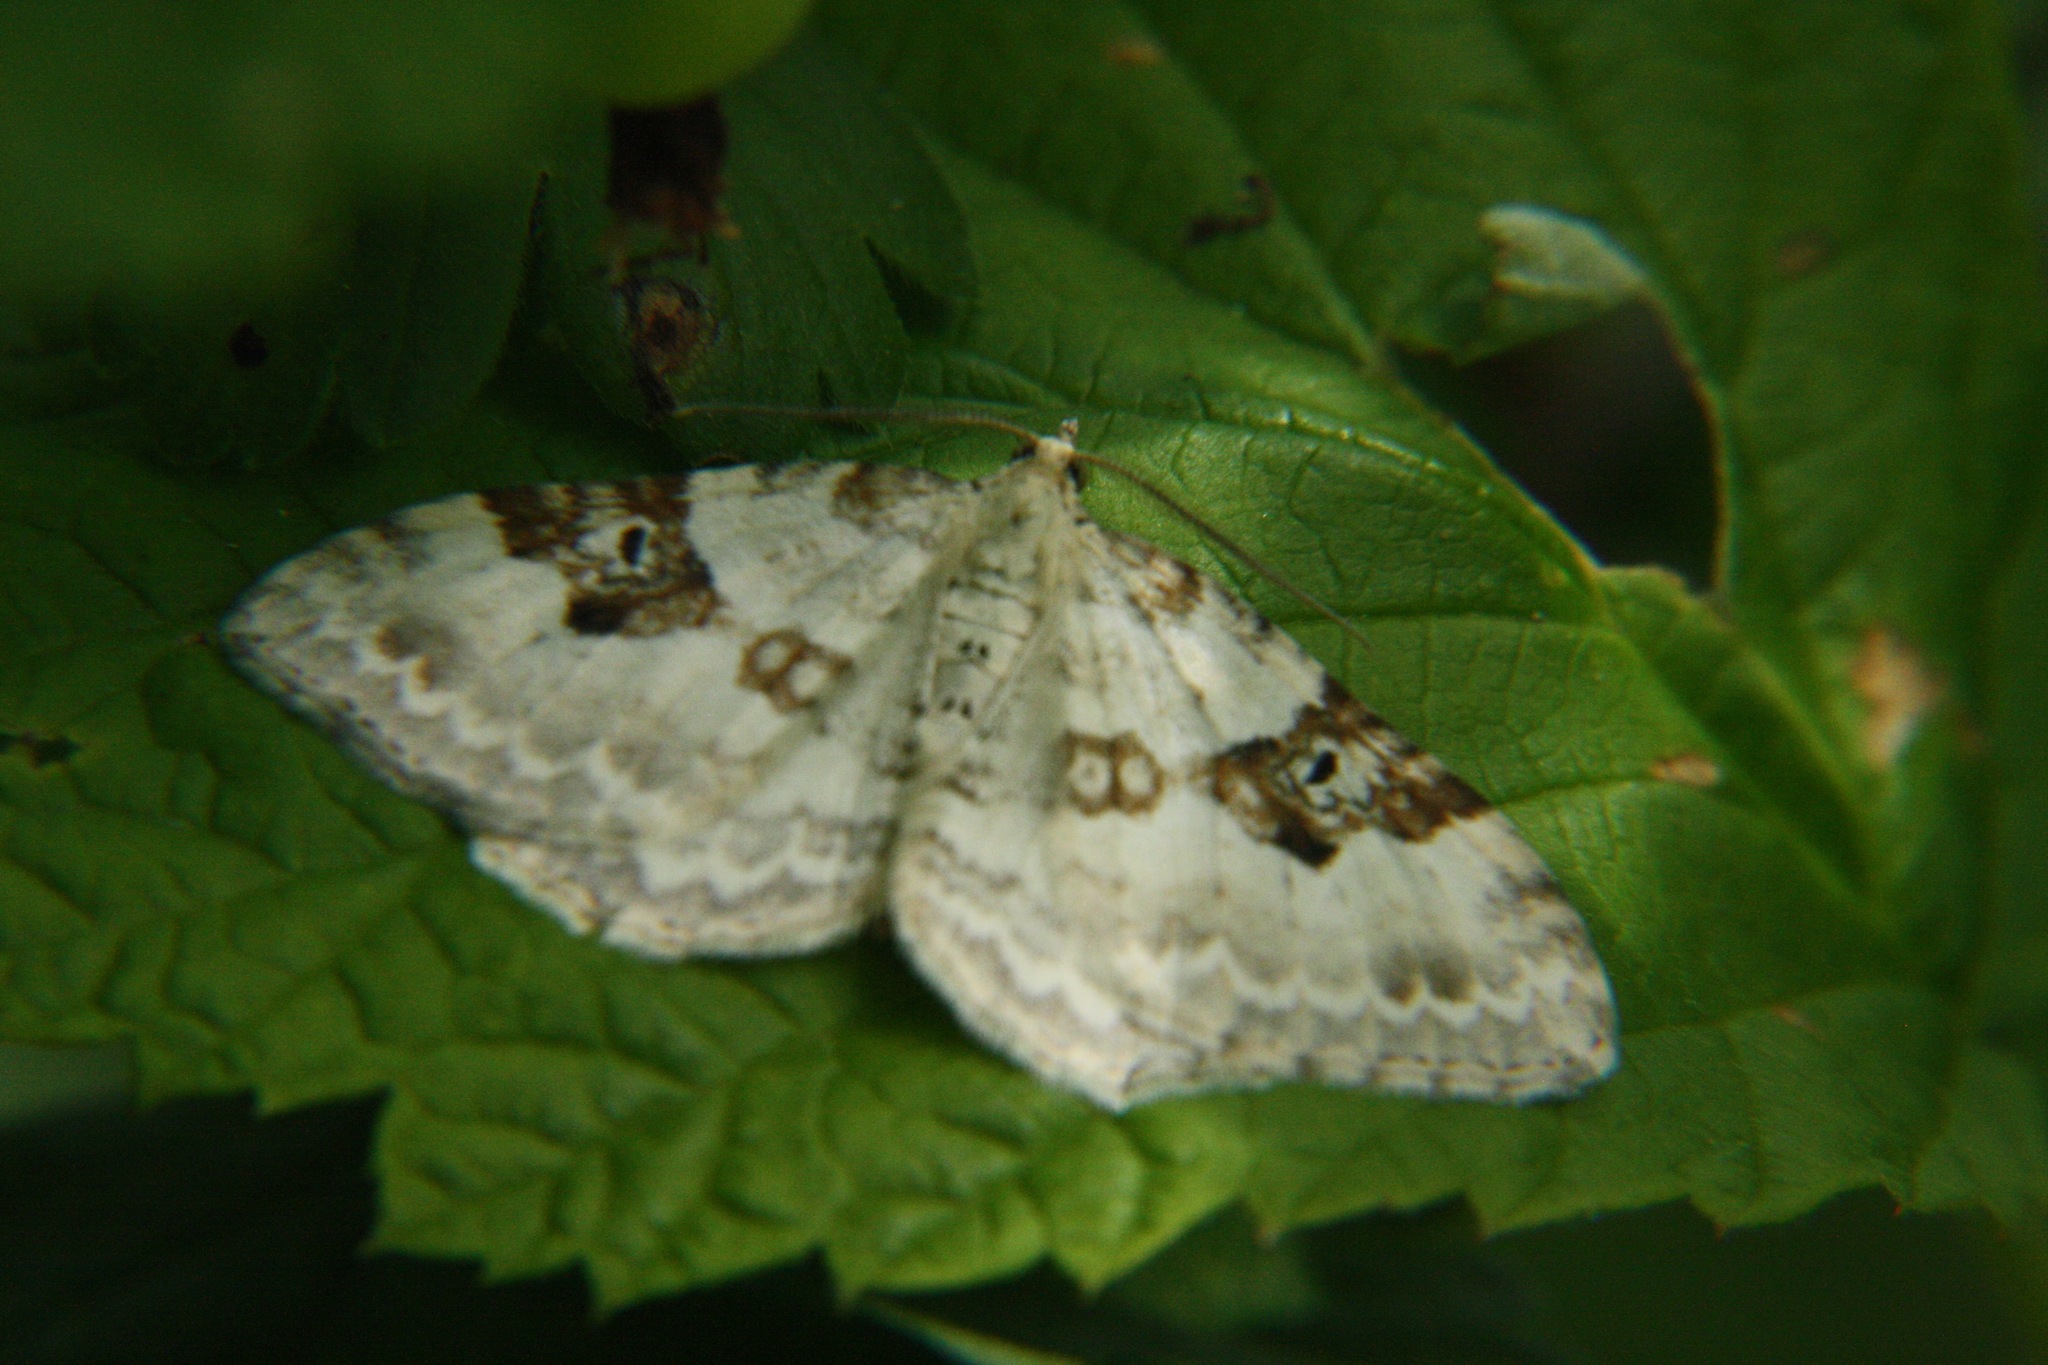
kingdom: Animalia
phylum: Arthropoda
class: Insecta
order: Lepidoptera
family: Geometridae
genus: Xanthorhoe
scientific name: Xanthorhoe montanata
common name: Silver-ground carpet
